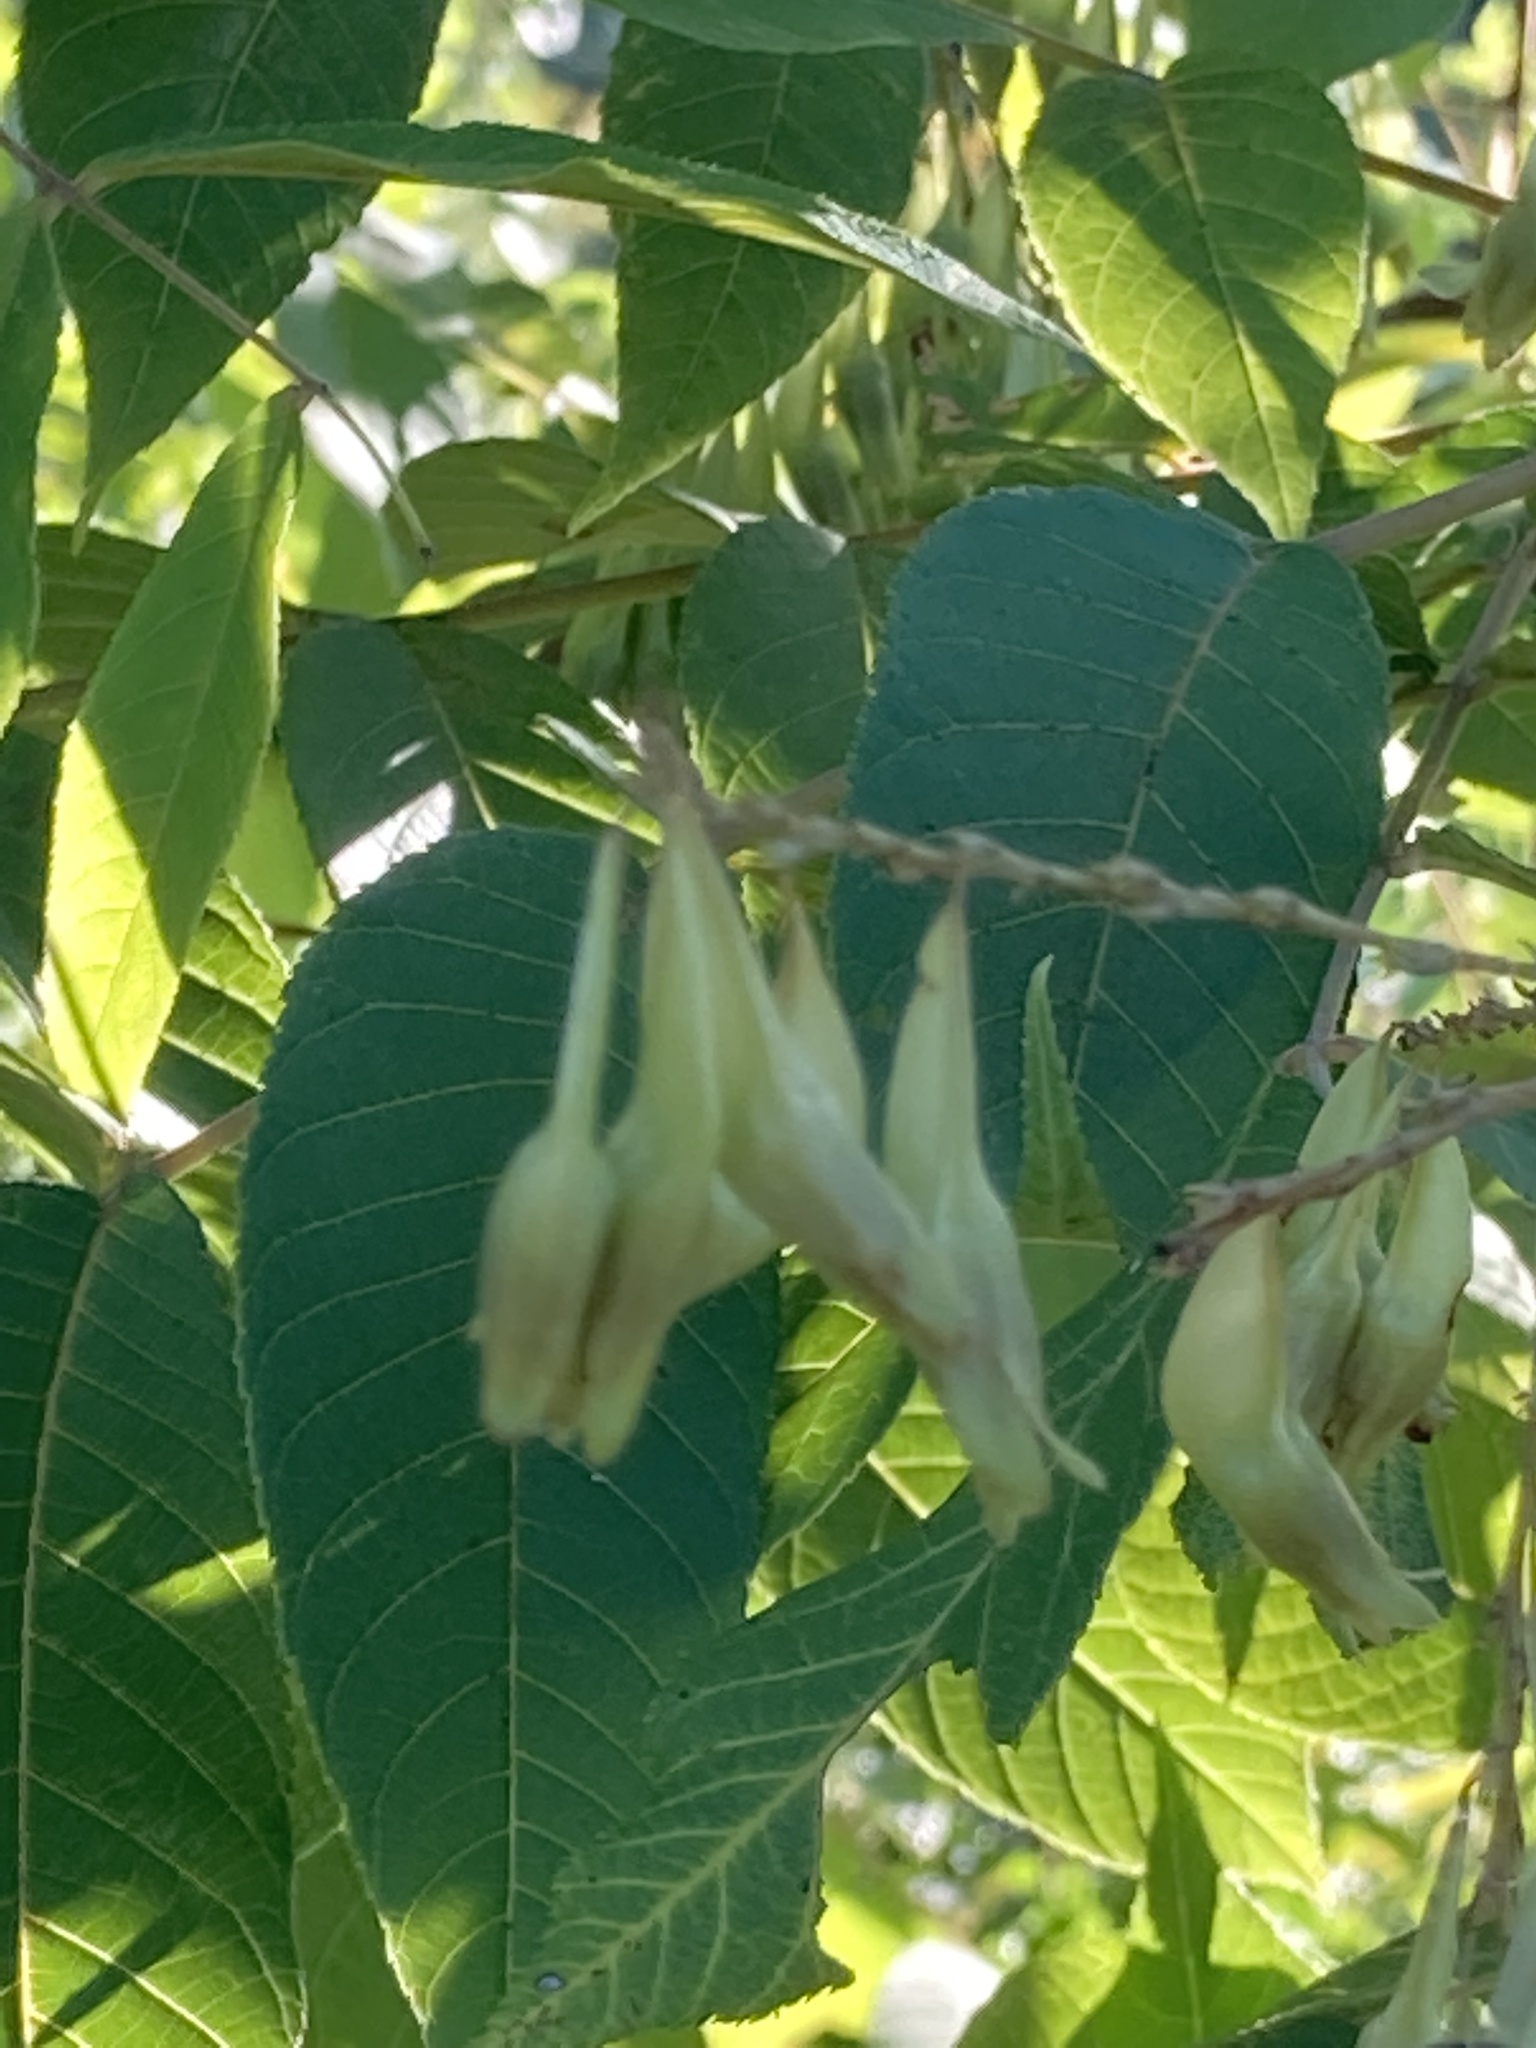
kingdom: Plantae
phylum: Tracheophyta
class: Magnoliopsida
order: Caryophyllales
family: Polygonaceae
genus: Brunnichia
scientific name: Brunnichia ovata
